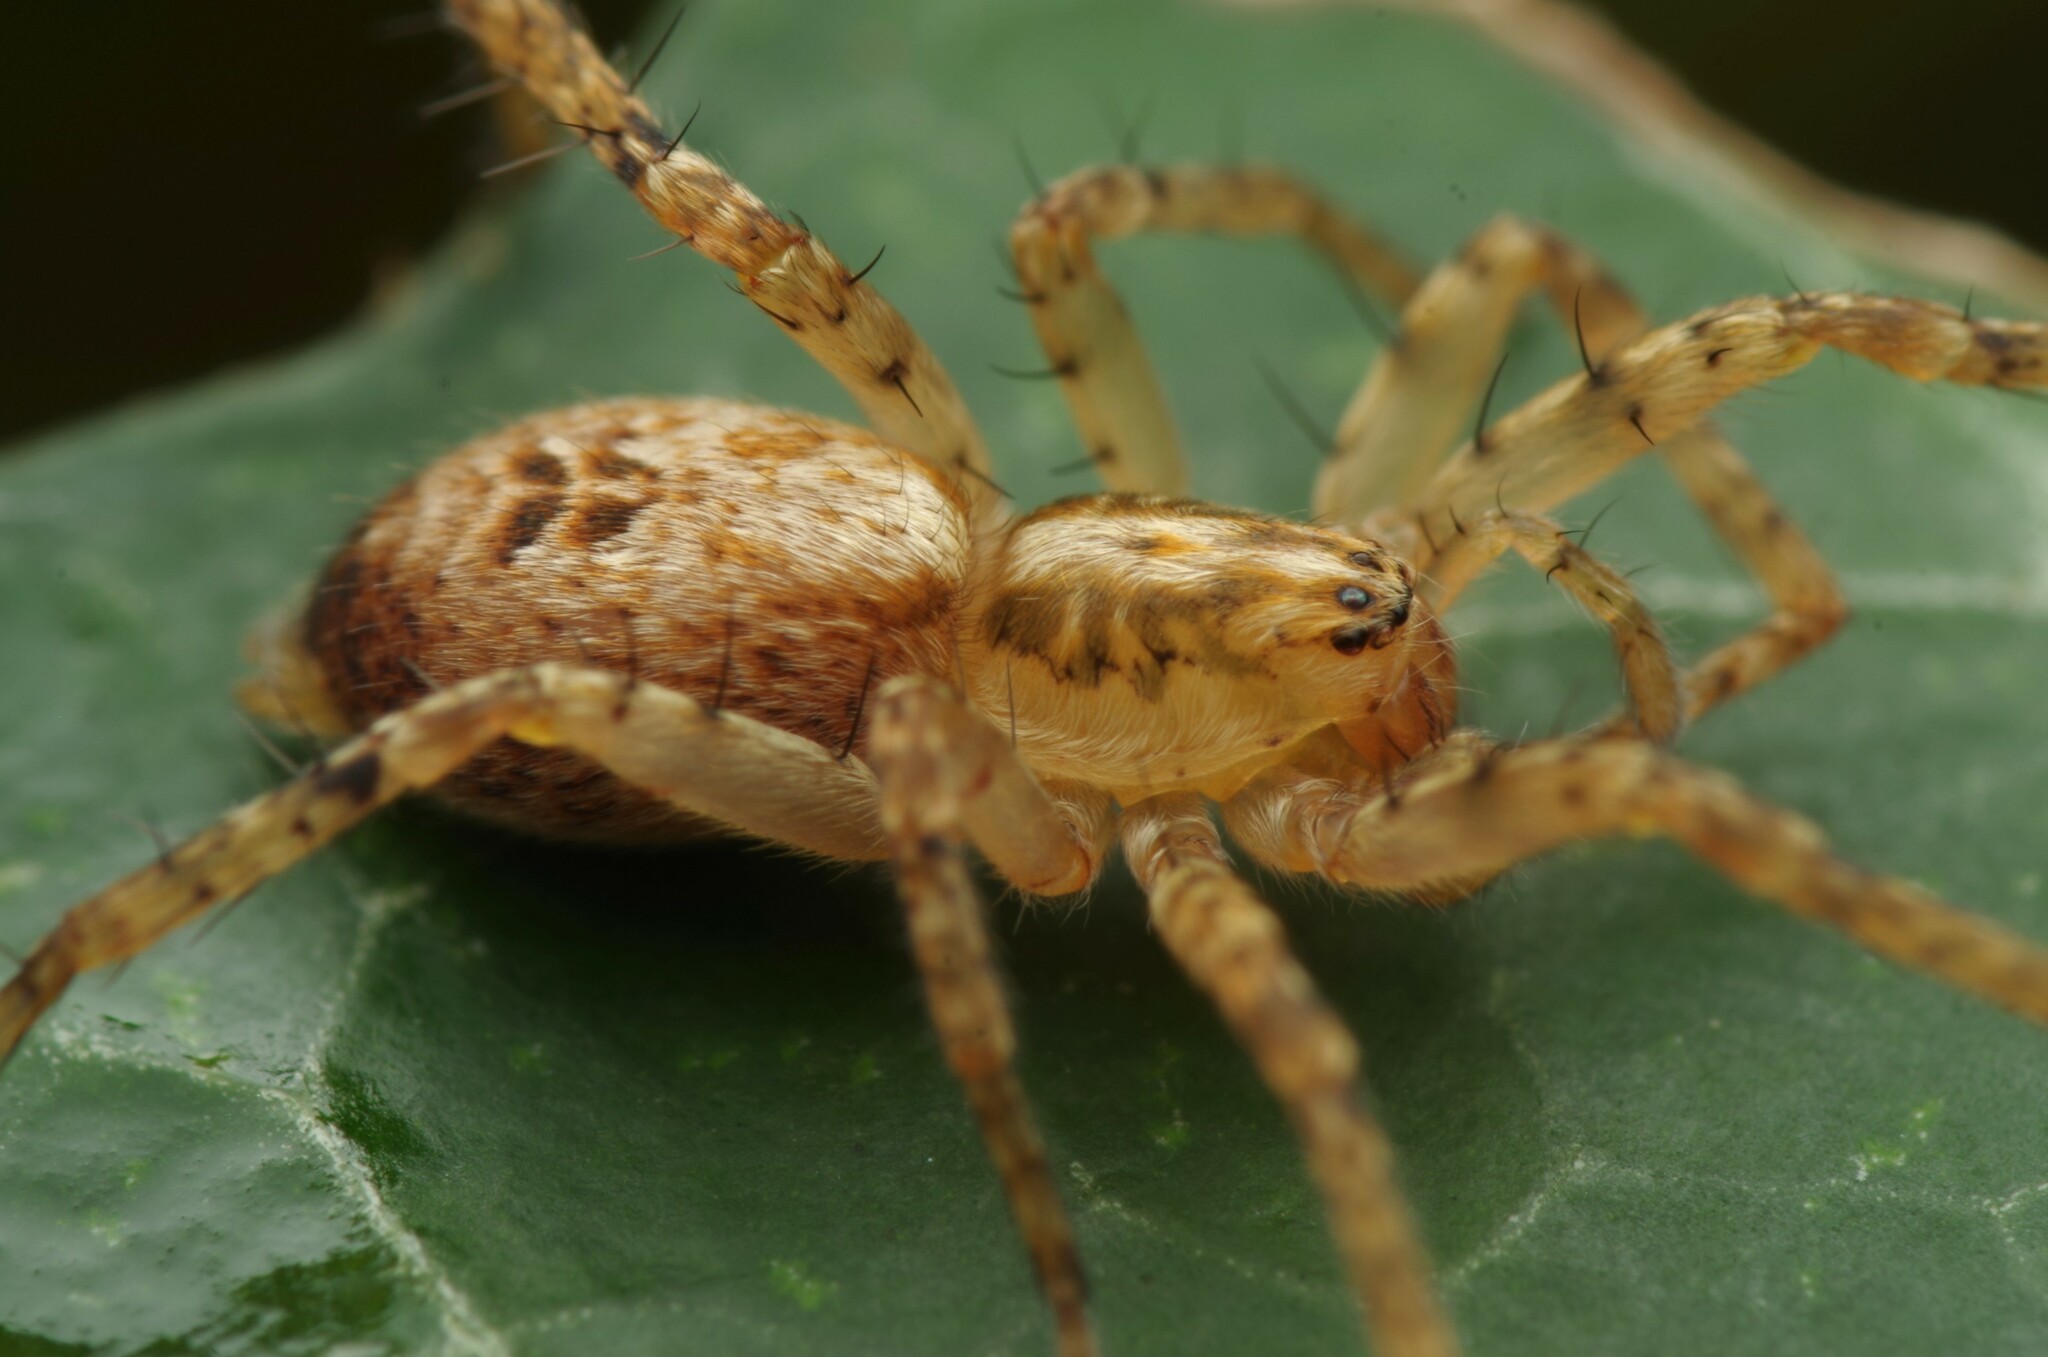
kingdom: Animalia
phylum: Arthropoda
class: Arachnida
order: Araneae
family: Anyphaenidae
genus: Anyphaena
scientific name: Anyphaena accentuata
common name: Buzzing spider
